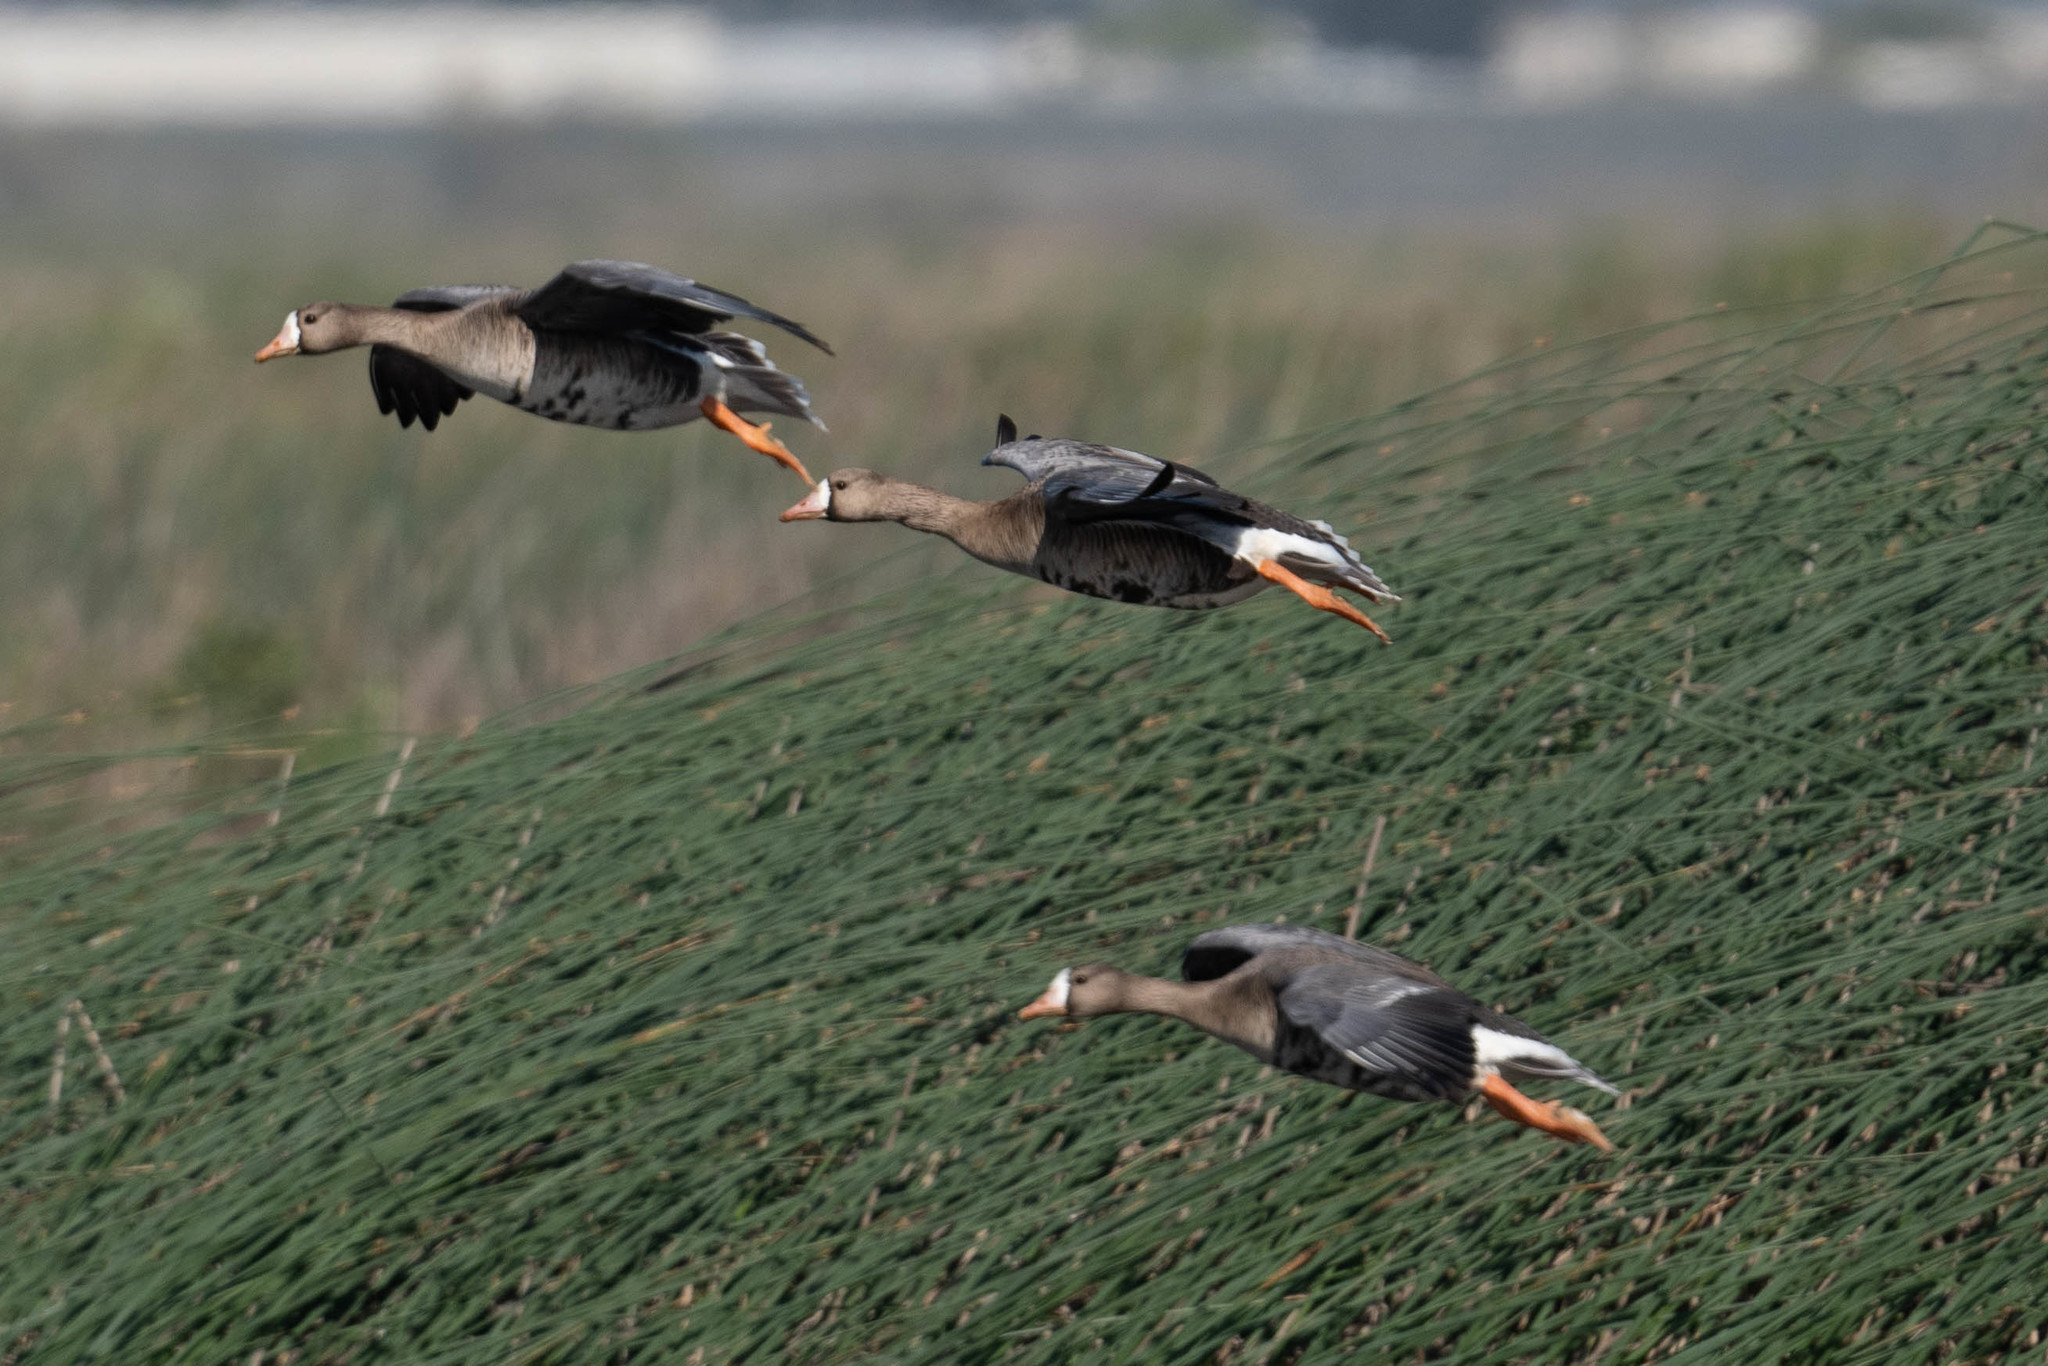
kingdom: Animalia
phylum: Chordata
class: Aves
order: Anseriformes
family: Anatidae
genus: Anser
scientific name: Anser albifrons
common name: Greater white-fronted goose
